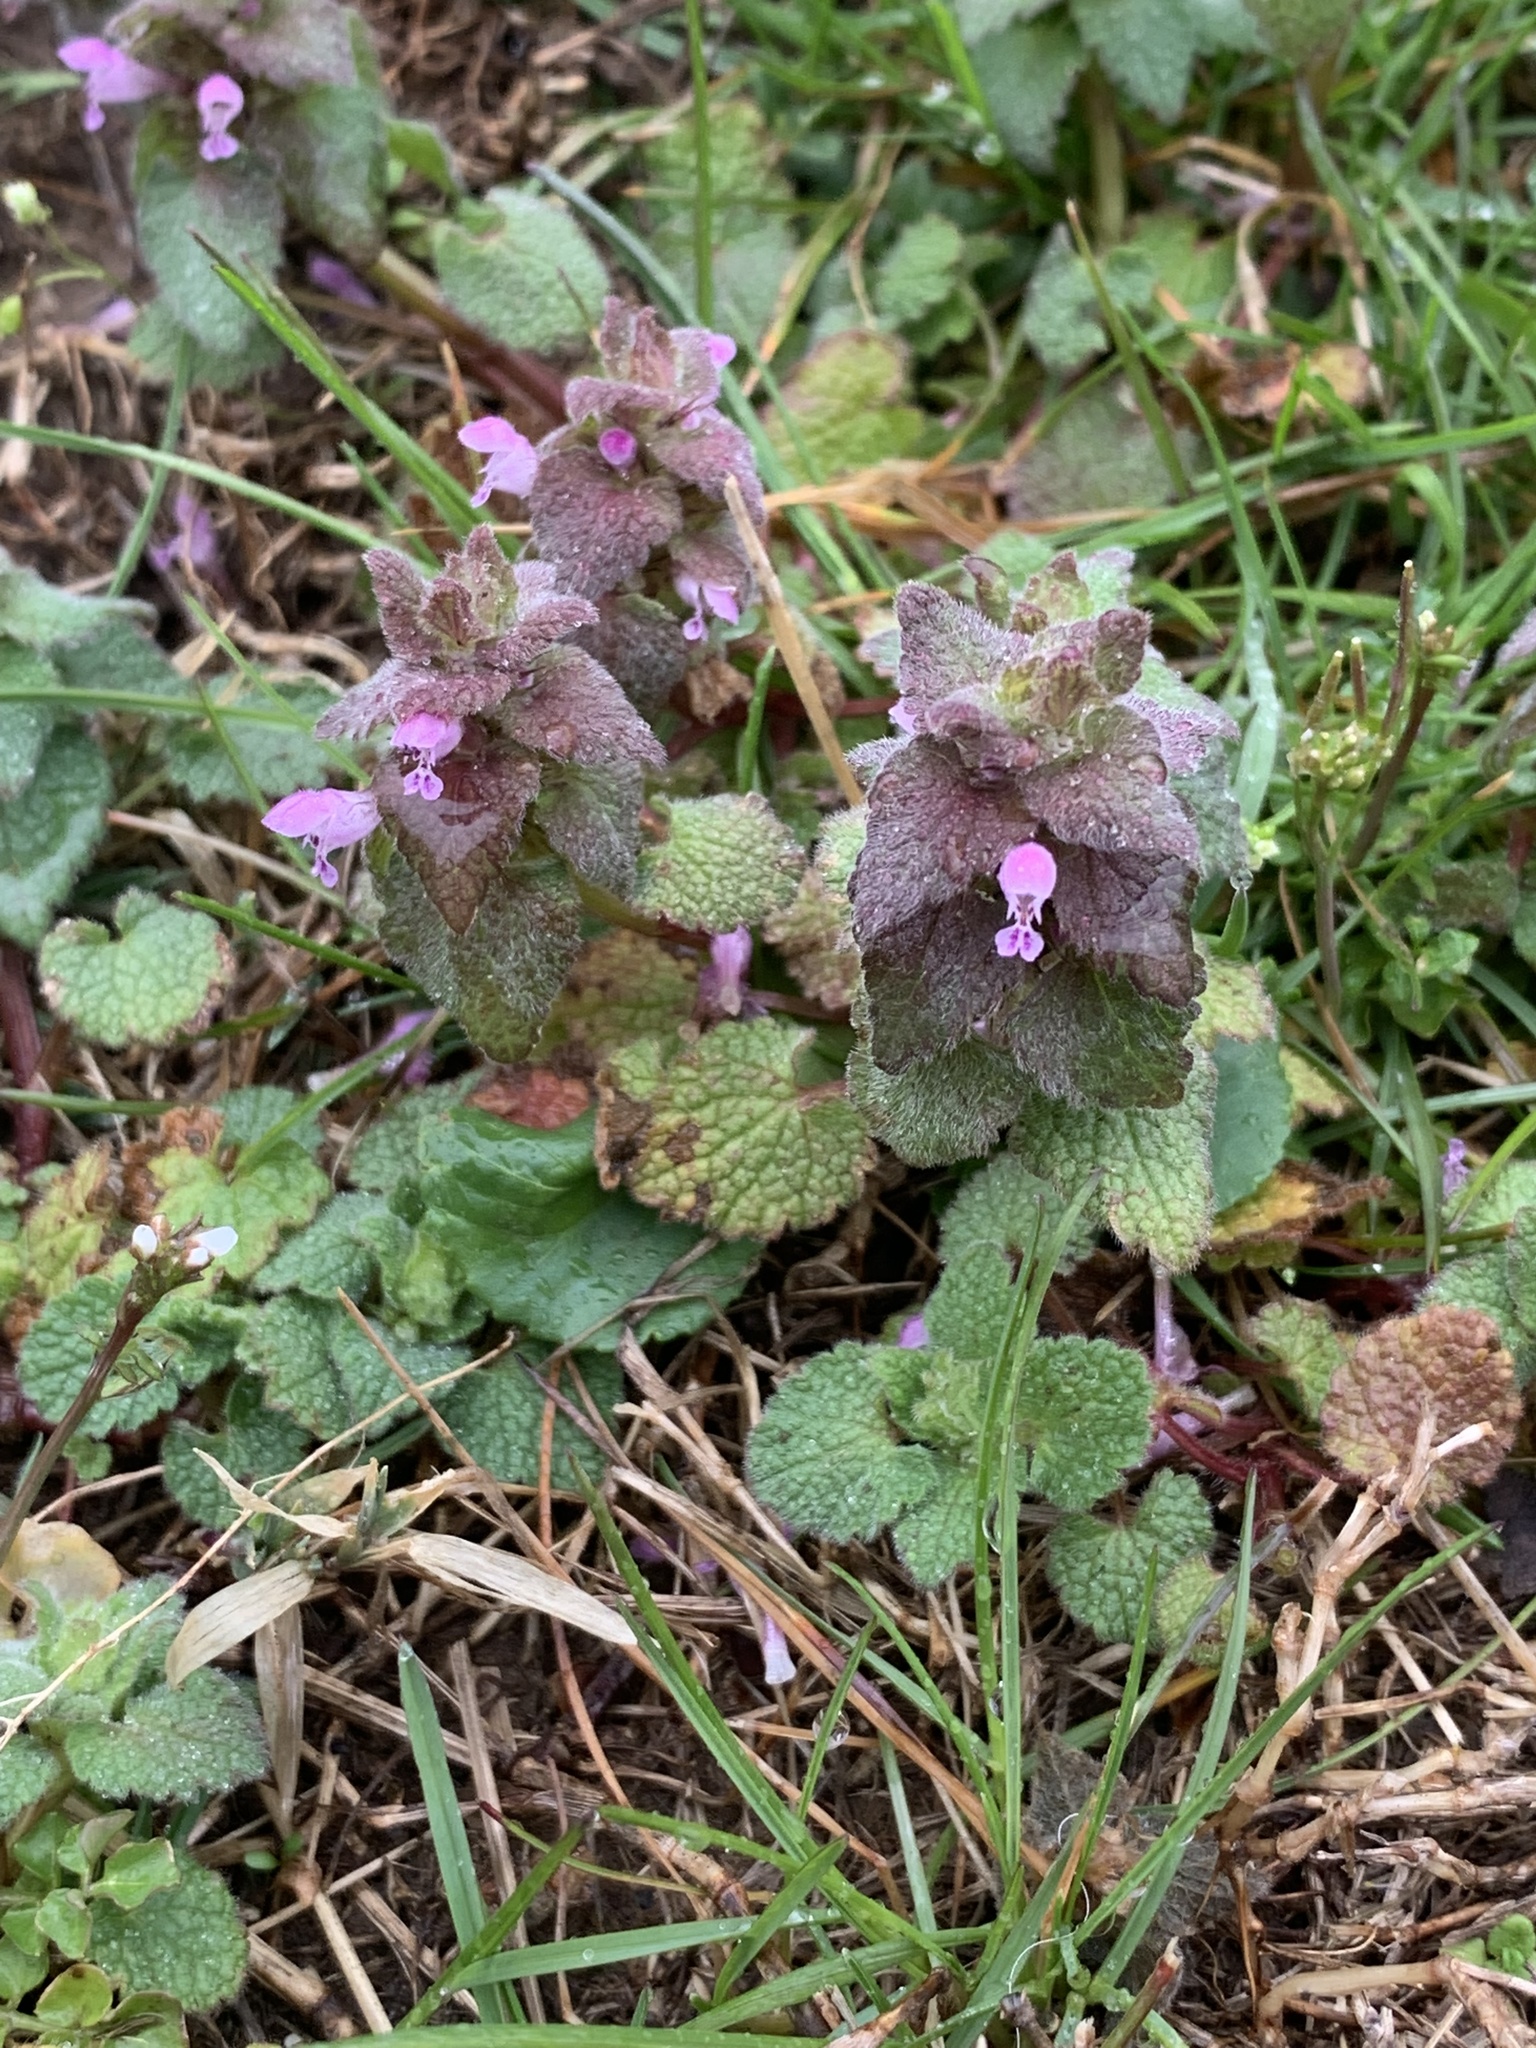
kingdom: Plantae
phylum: Tracheophyta
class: Magnoliopsida
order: Lamiales
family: Lamiaceae
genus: Lamium
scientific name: Lamium purpureum
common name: Red dead-nettle
